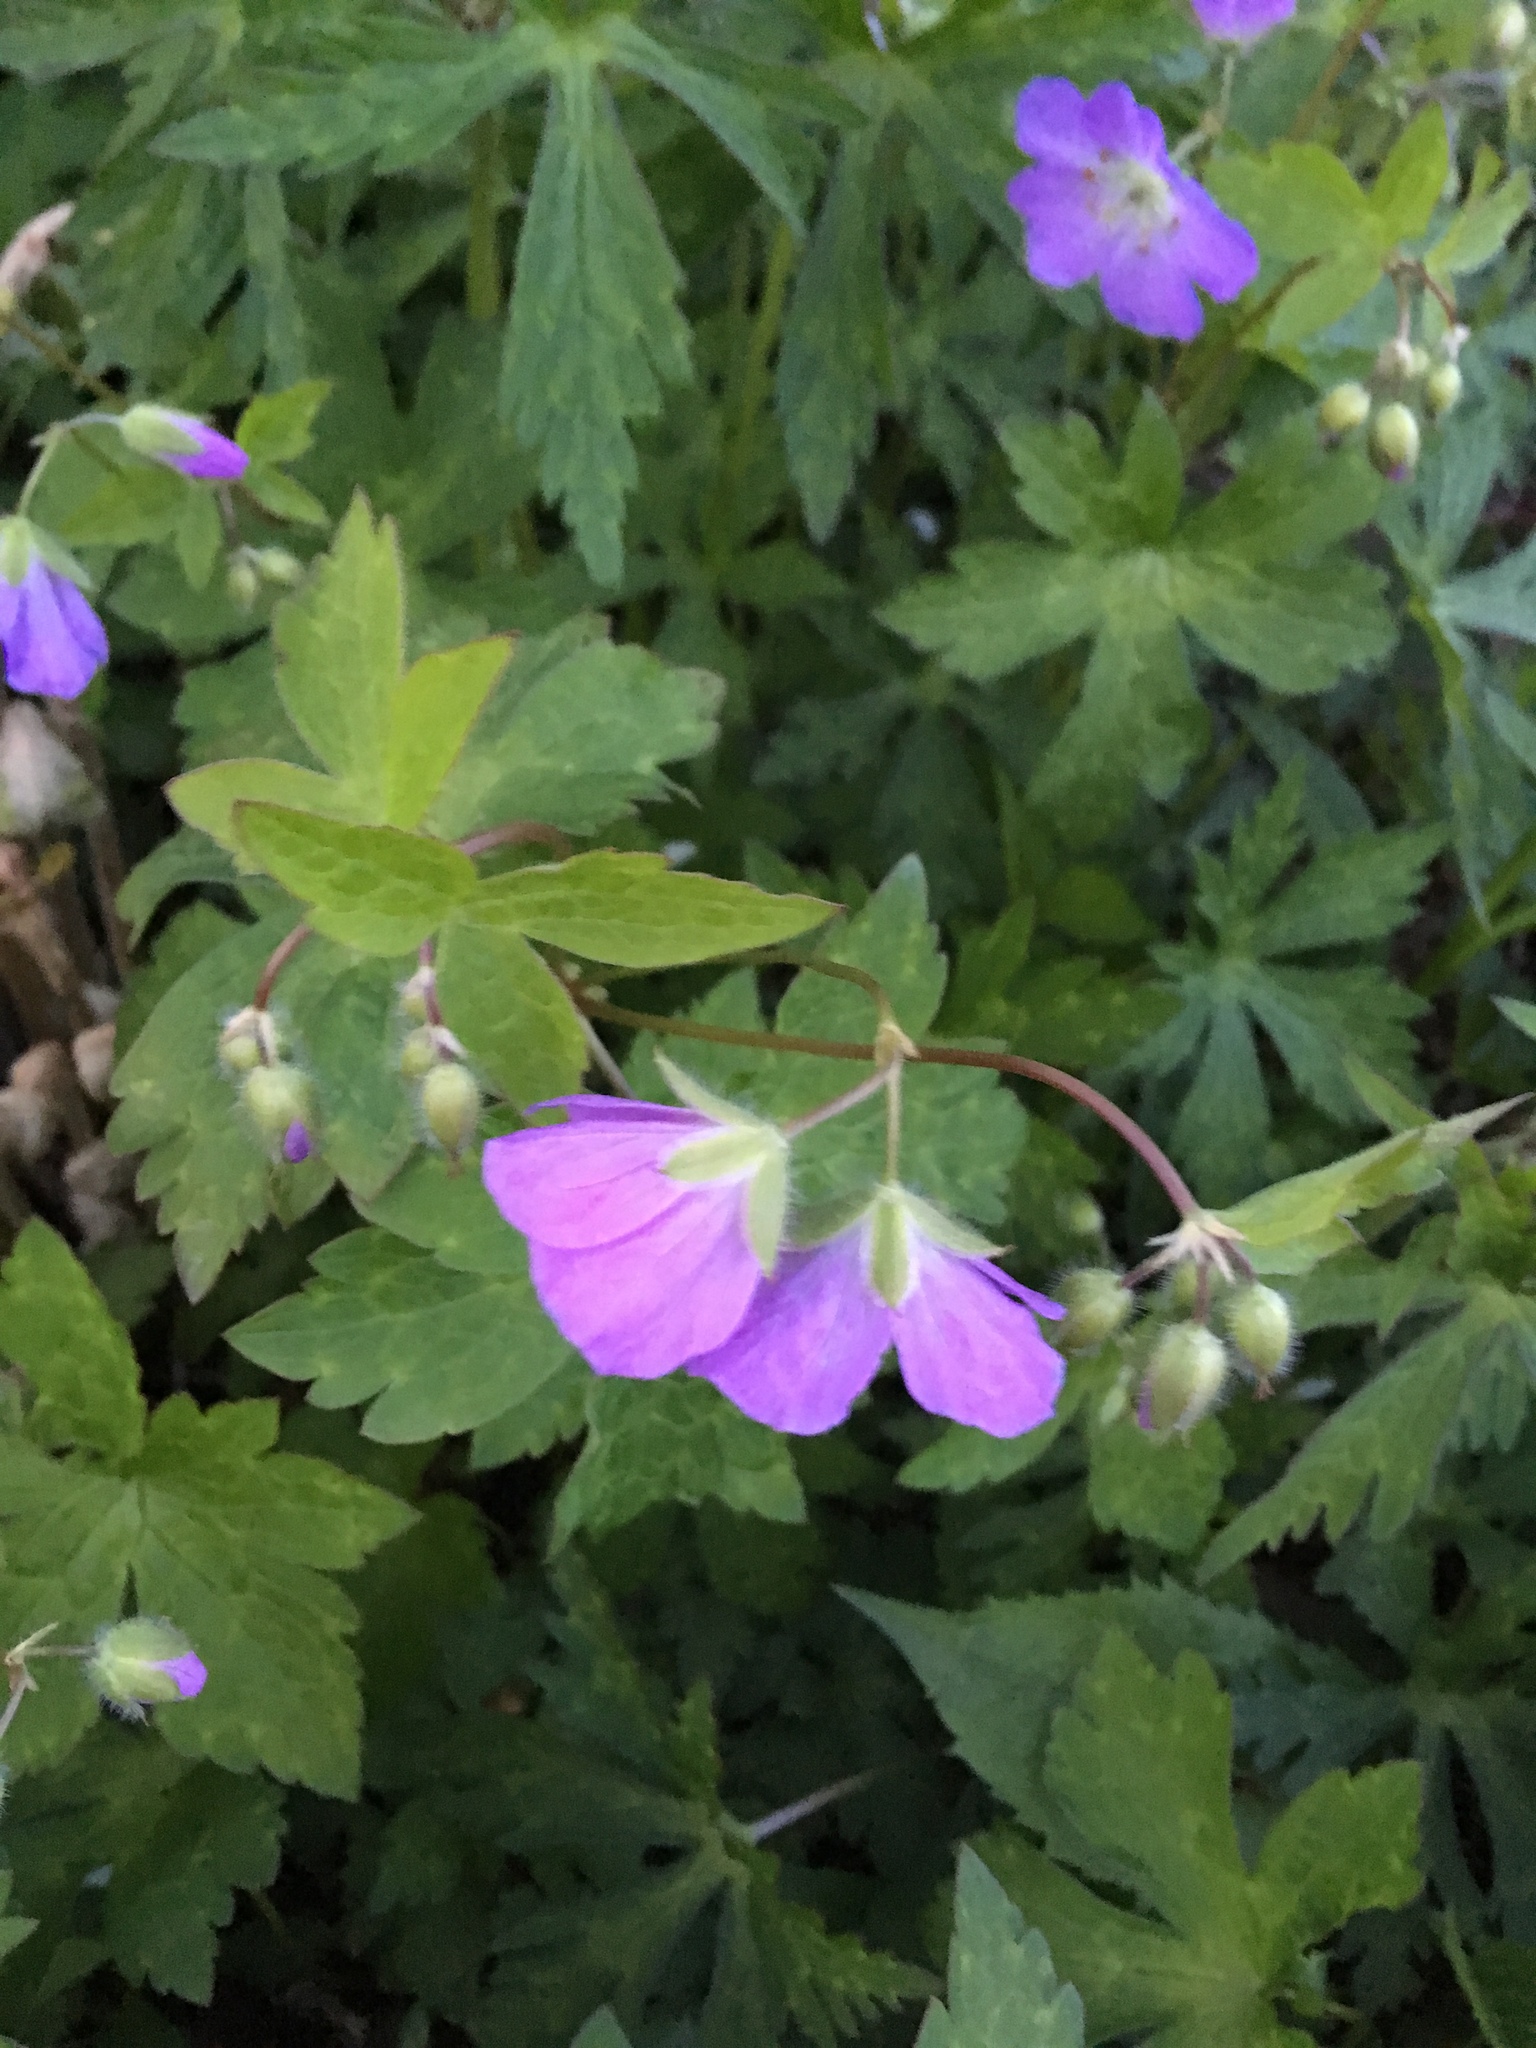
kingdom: Plantae
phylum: Tracheophyta
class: Magnoliopsida
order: Geraniales
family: Geraniaceae
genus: Geranium
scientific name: Geranium maculatum
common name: Spotted geranium
